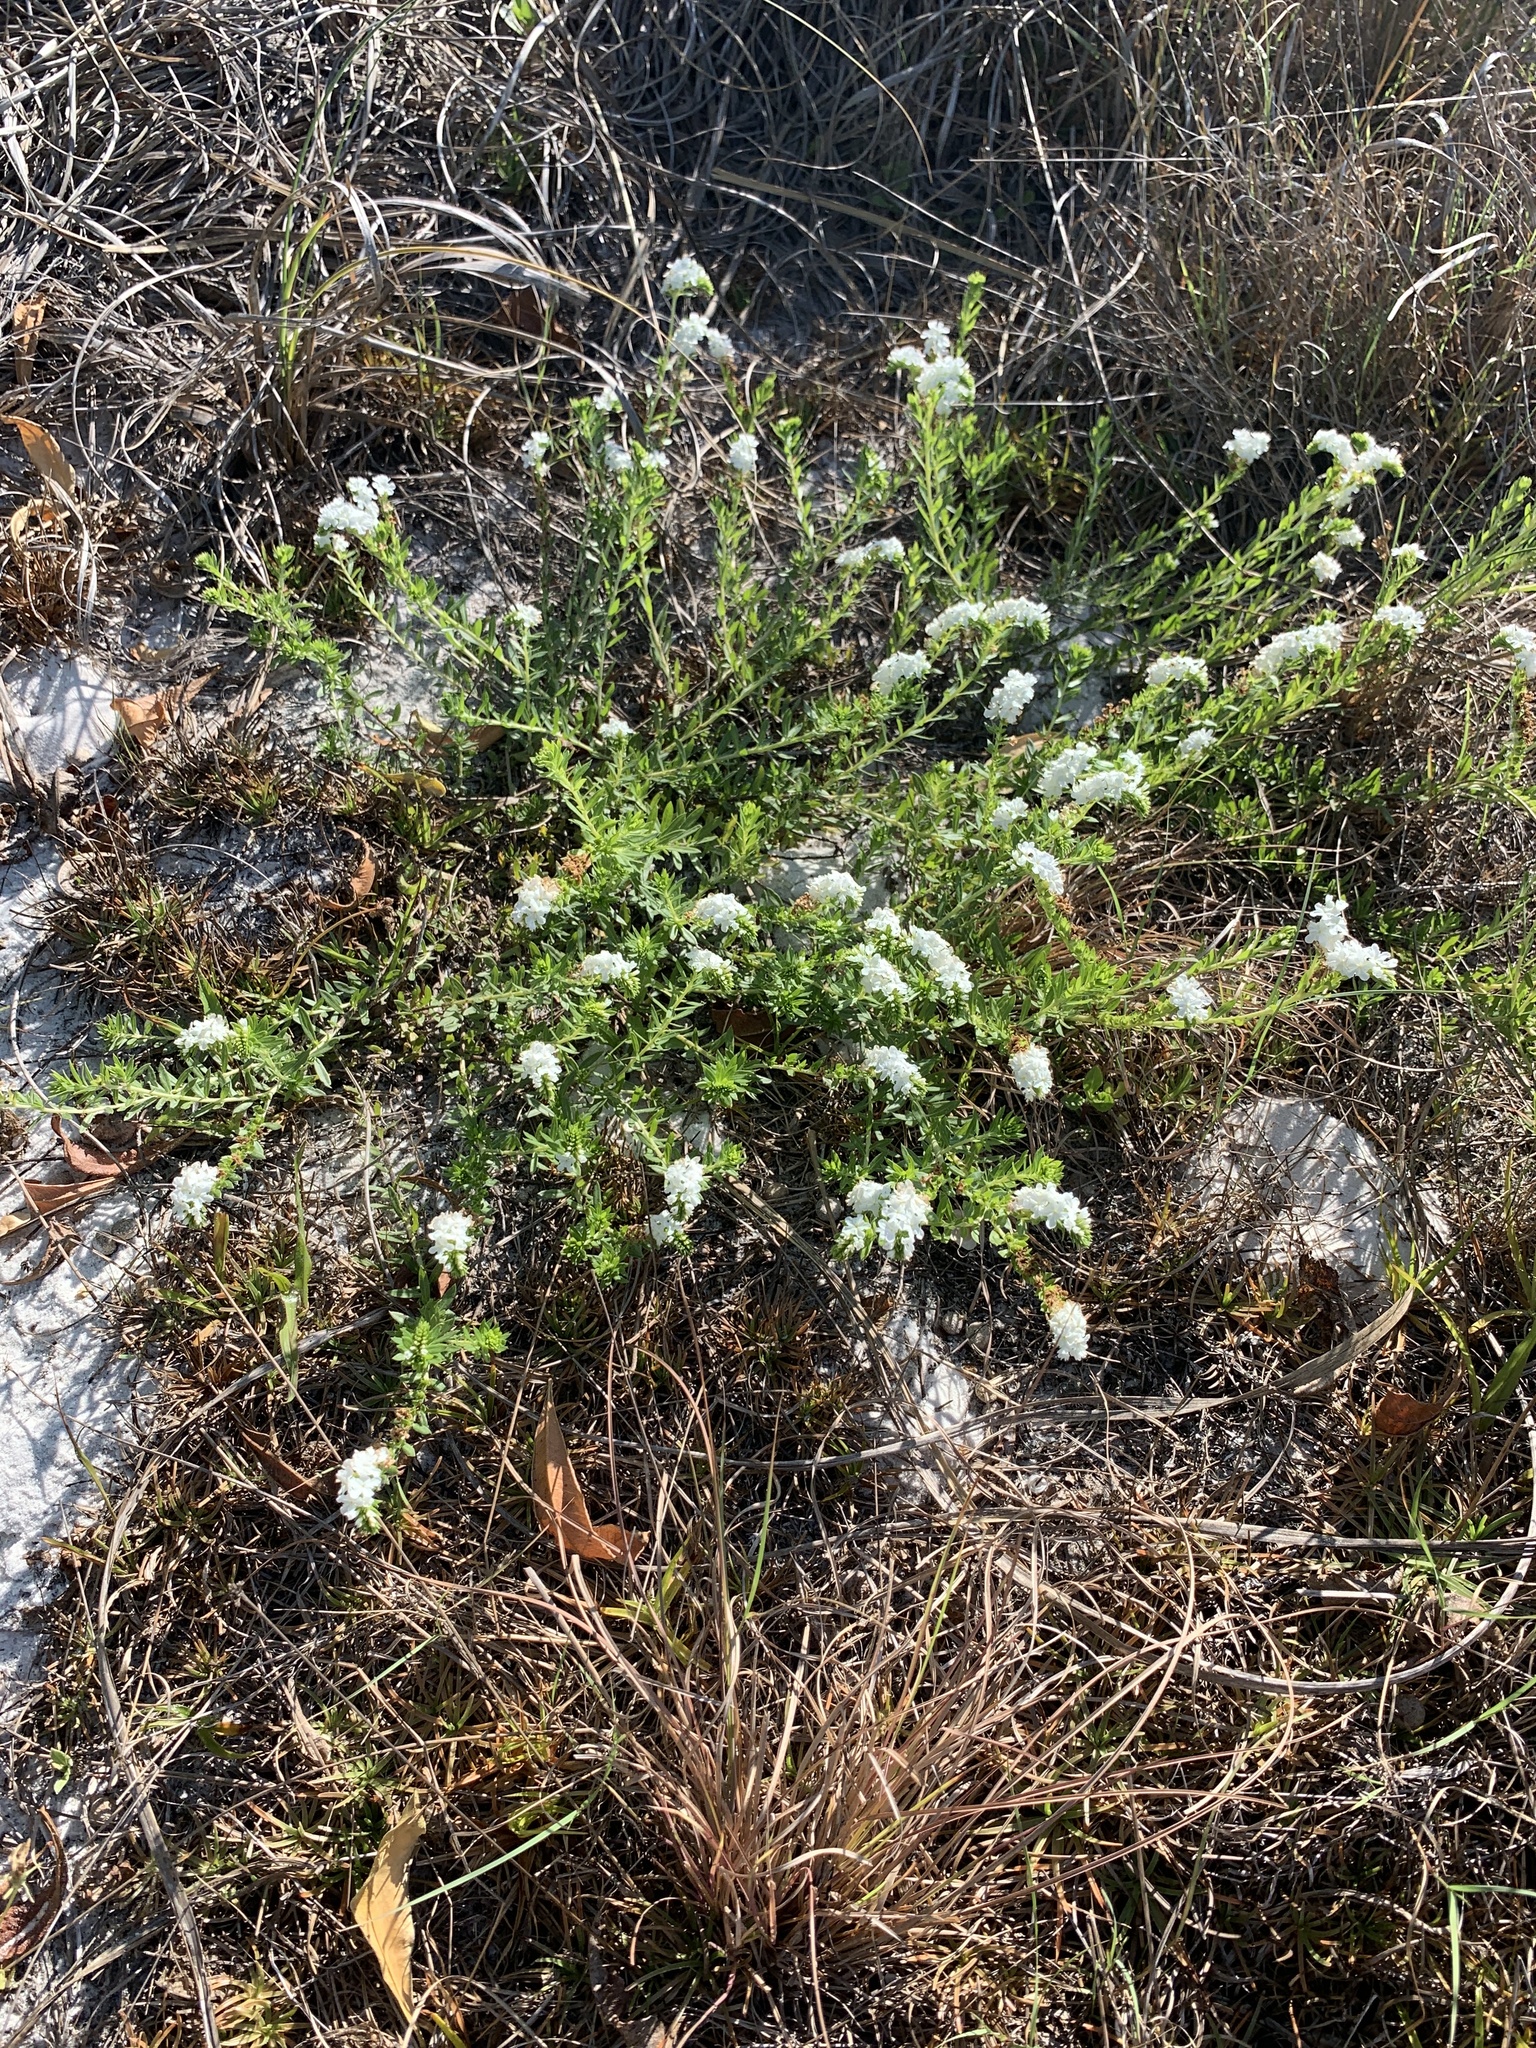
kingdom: Plantae
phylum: Tracheophyta
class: Magnoliopsida
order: Boraginales
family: Heliotropiaceae
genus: Euploca
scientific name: Euploca polyphylla
